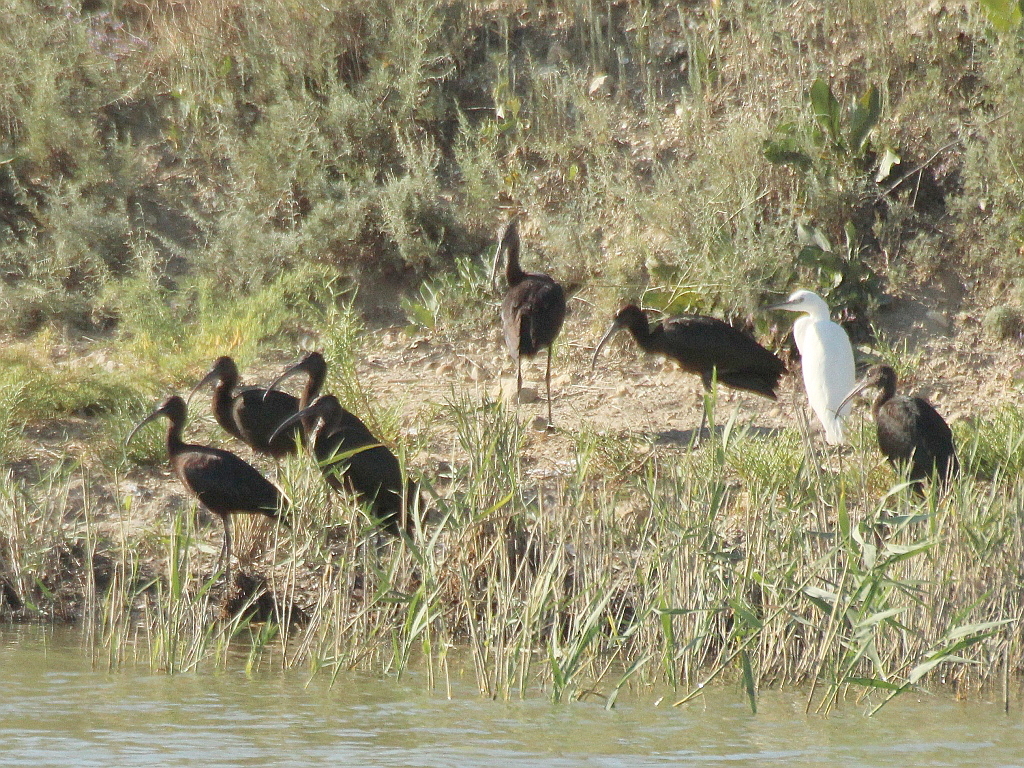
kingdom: Animalia
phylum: Chordata
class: Aves
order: Pelecaniformes
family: Threskiornithidae
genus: Plegadis
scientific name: Plegadis falcinellus
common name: Glossy ibis
